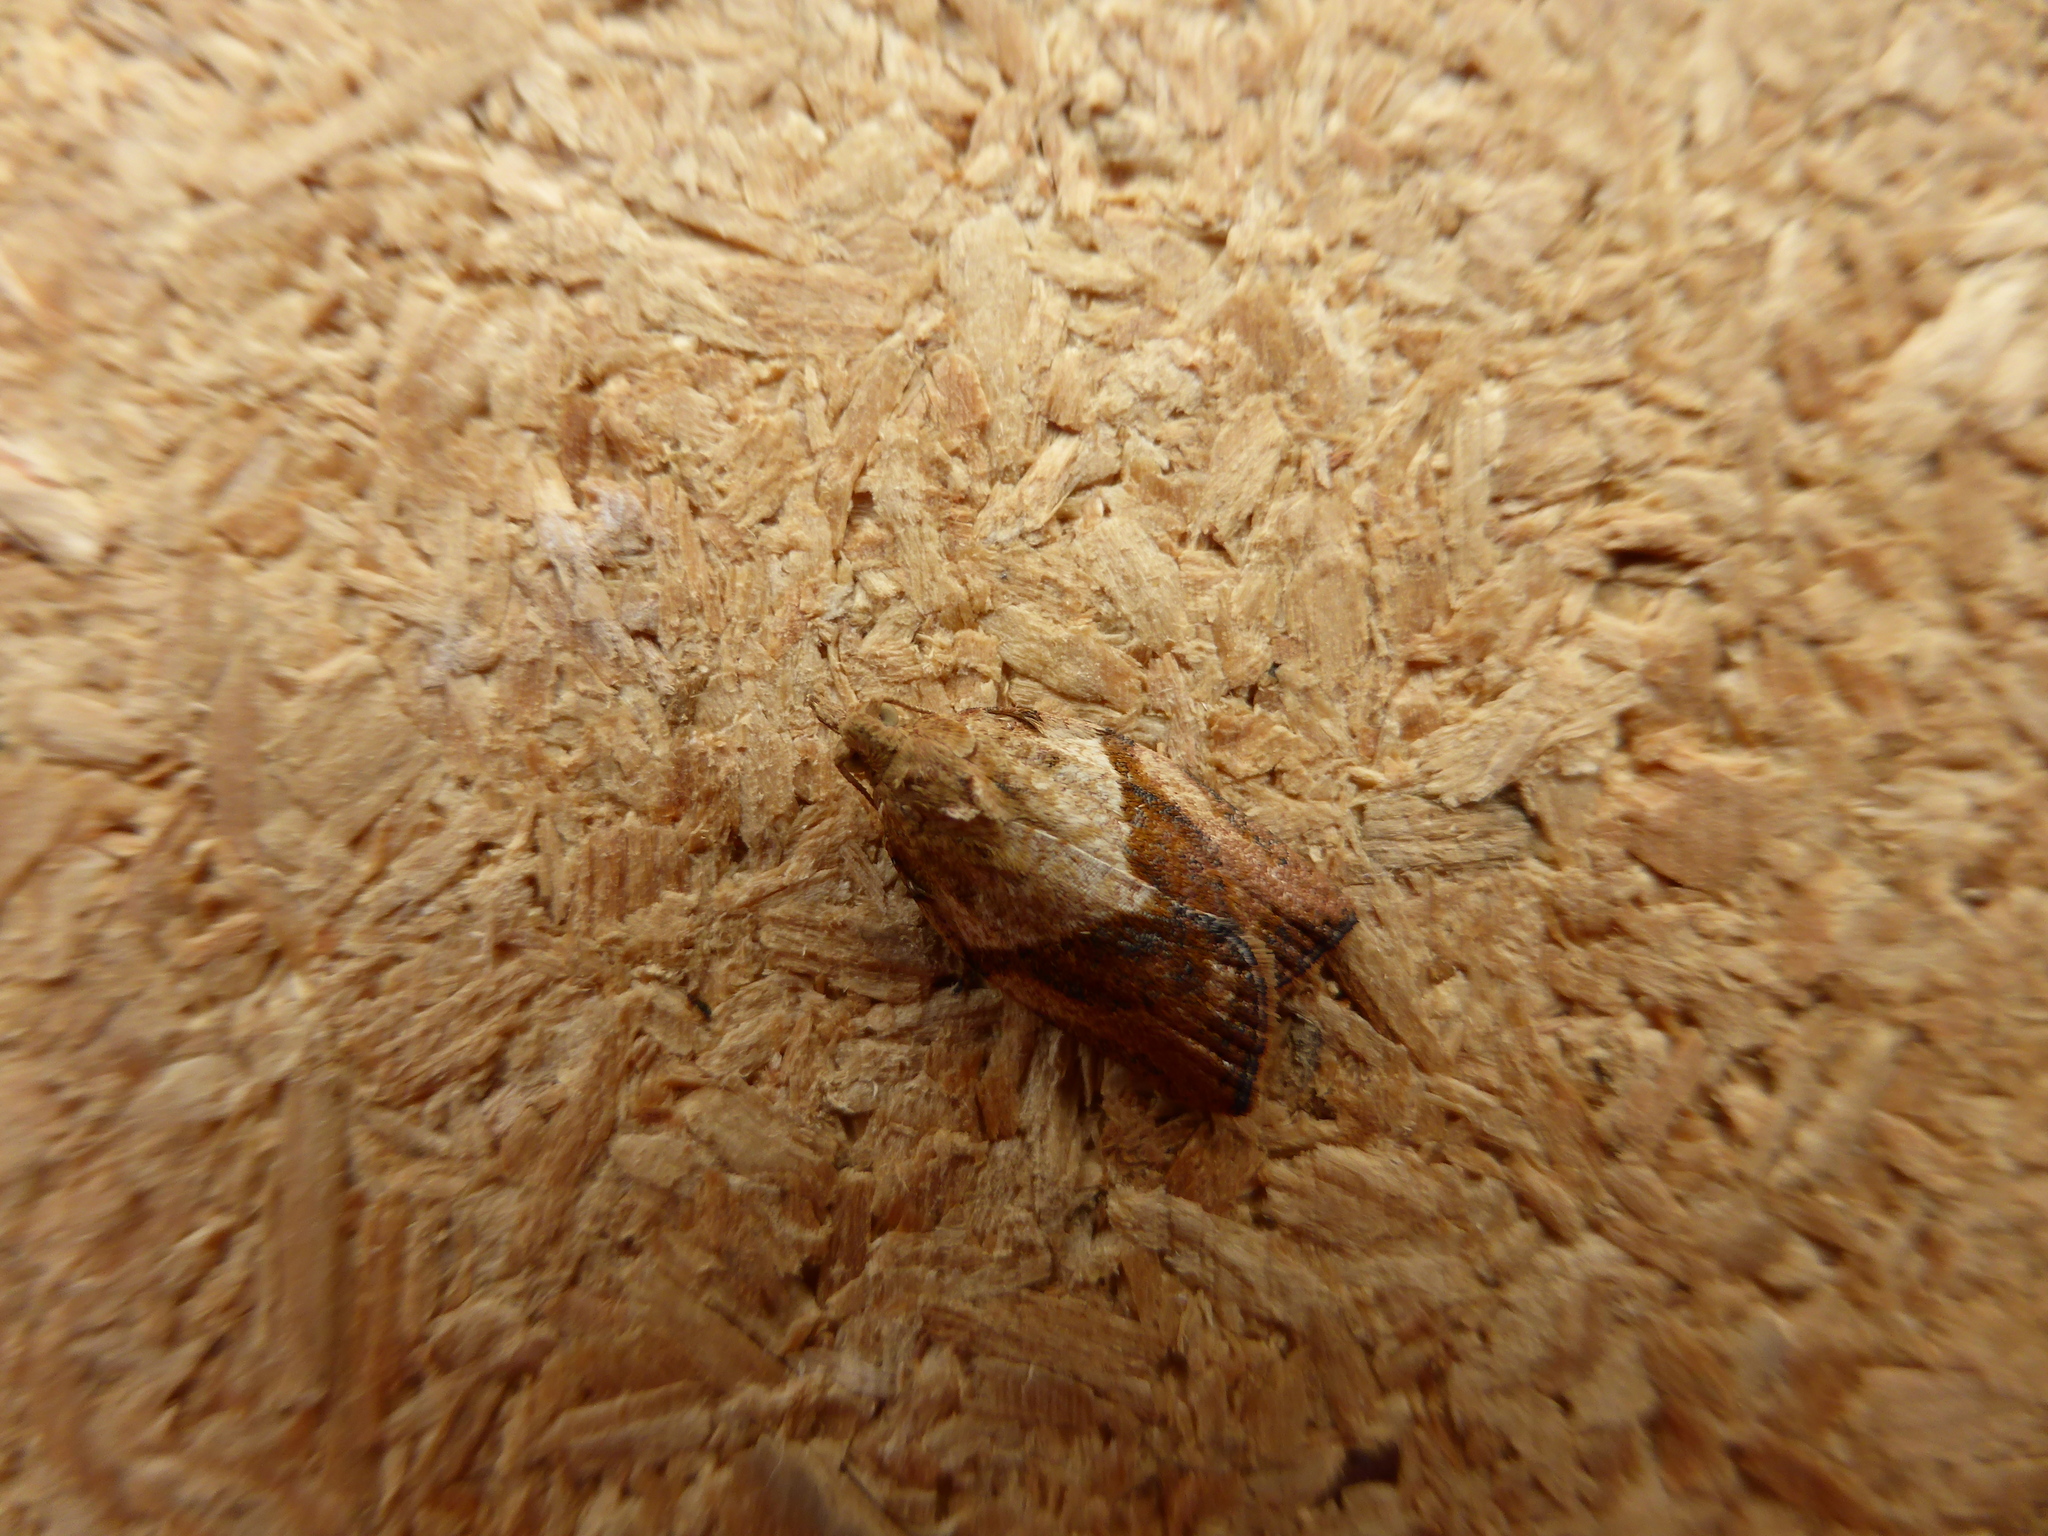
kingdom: Animalia
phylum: Arthropoda
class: Insecta
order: Lepidoptera
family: Tortricidae
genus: Epiphyas
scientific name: Epiphyas postvittana
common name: Light brown apple moth
